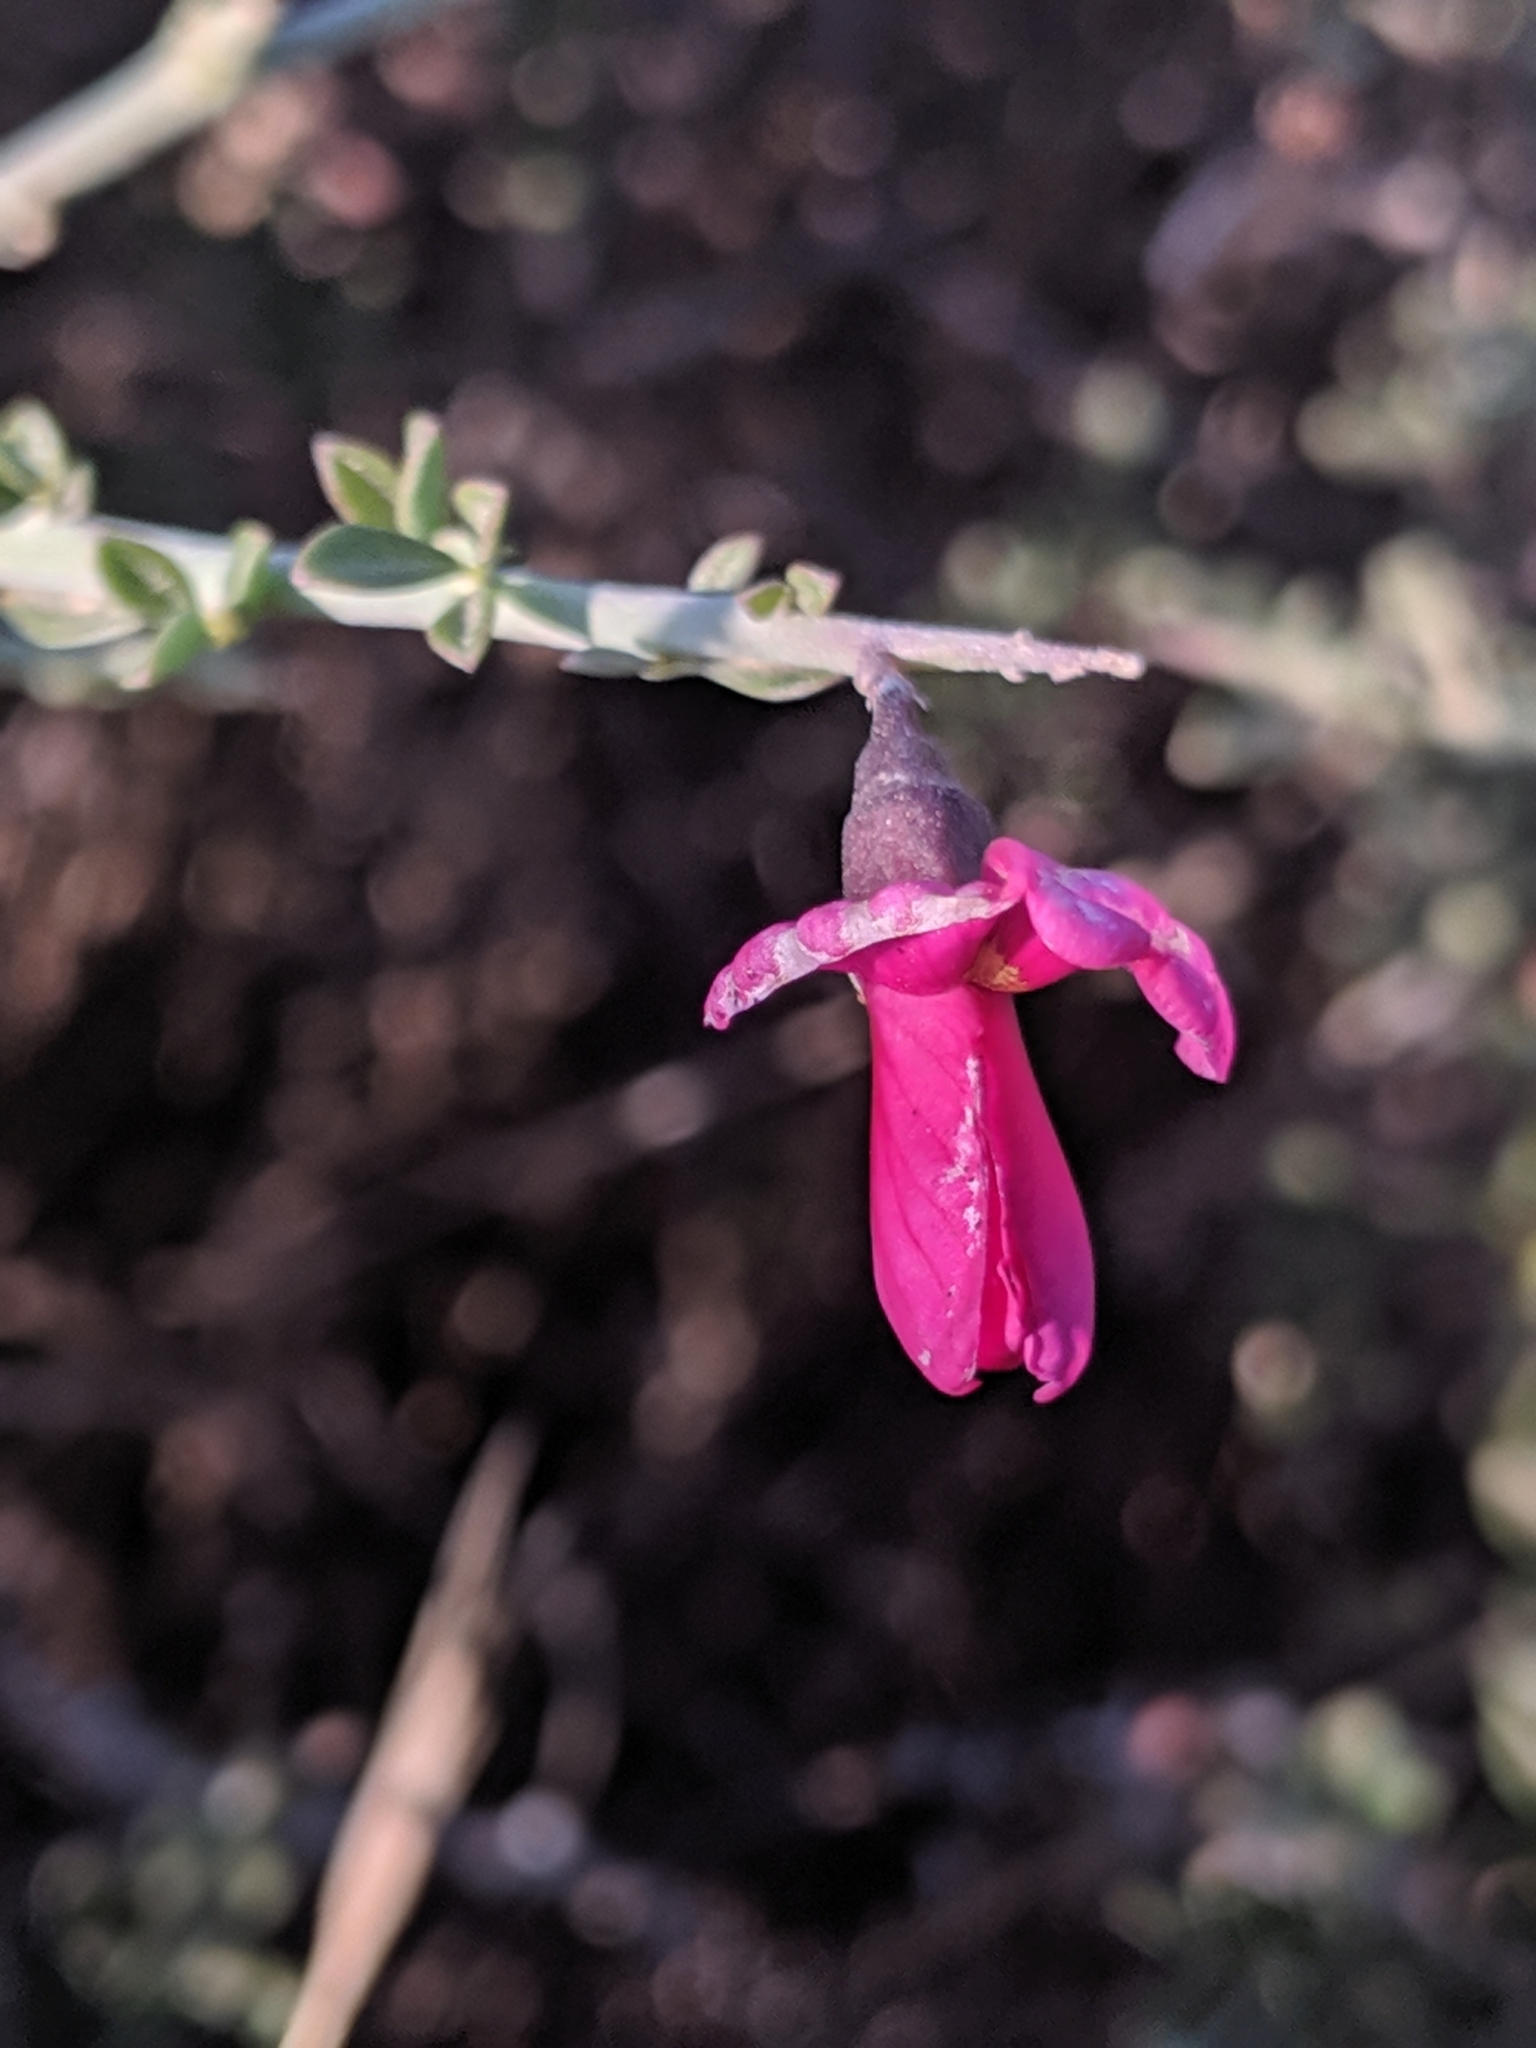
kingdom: Plantae
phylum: Tracheophyta
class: Magnoliopsida
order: Fabales
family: Fabaceae
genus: Pickeringia
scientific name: Pickeringia montana
